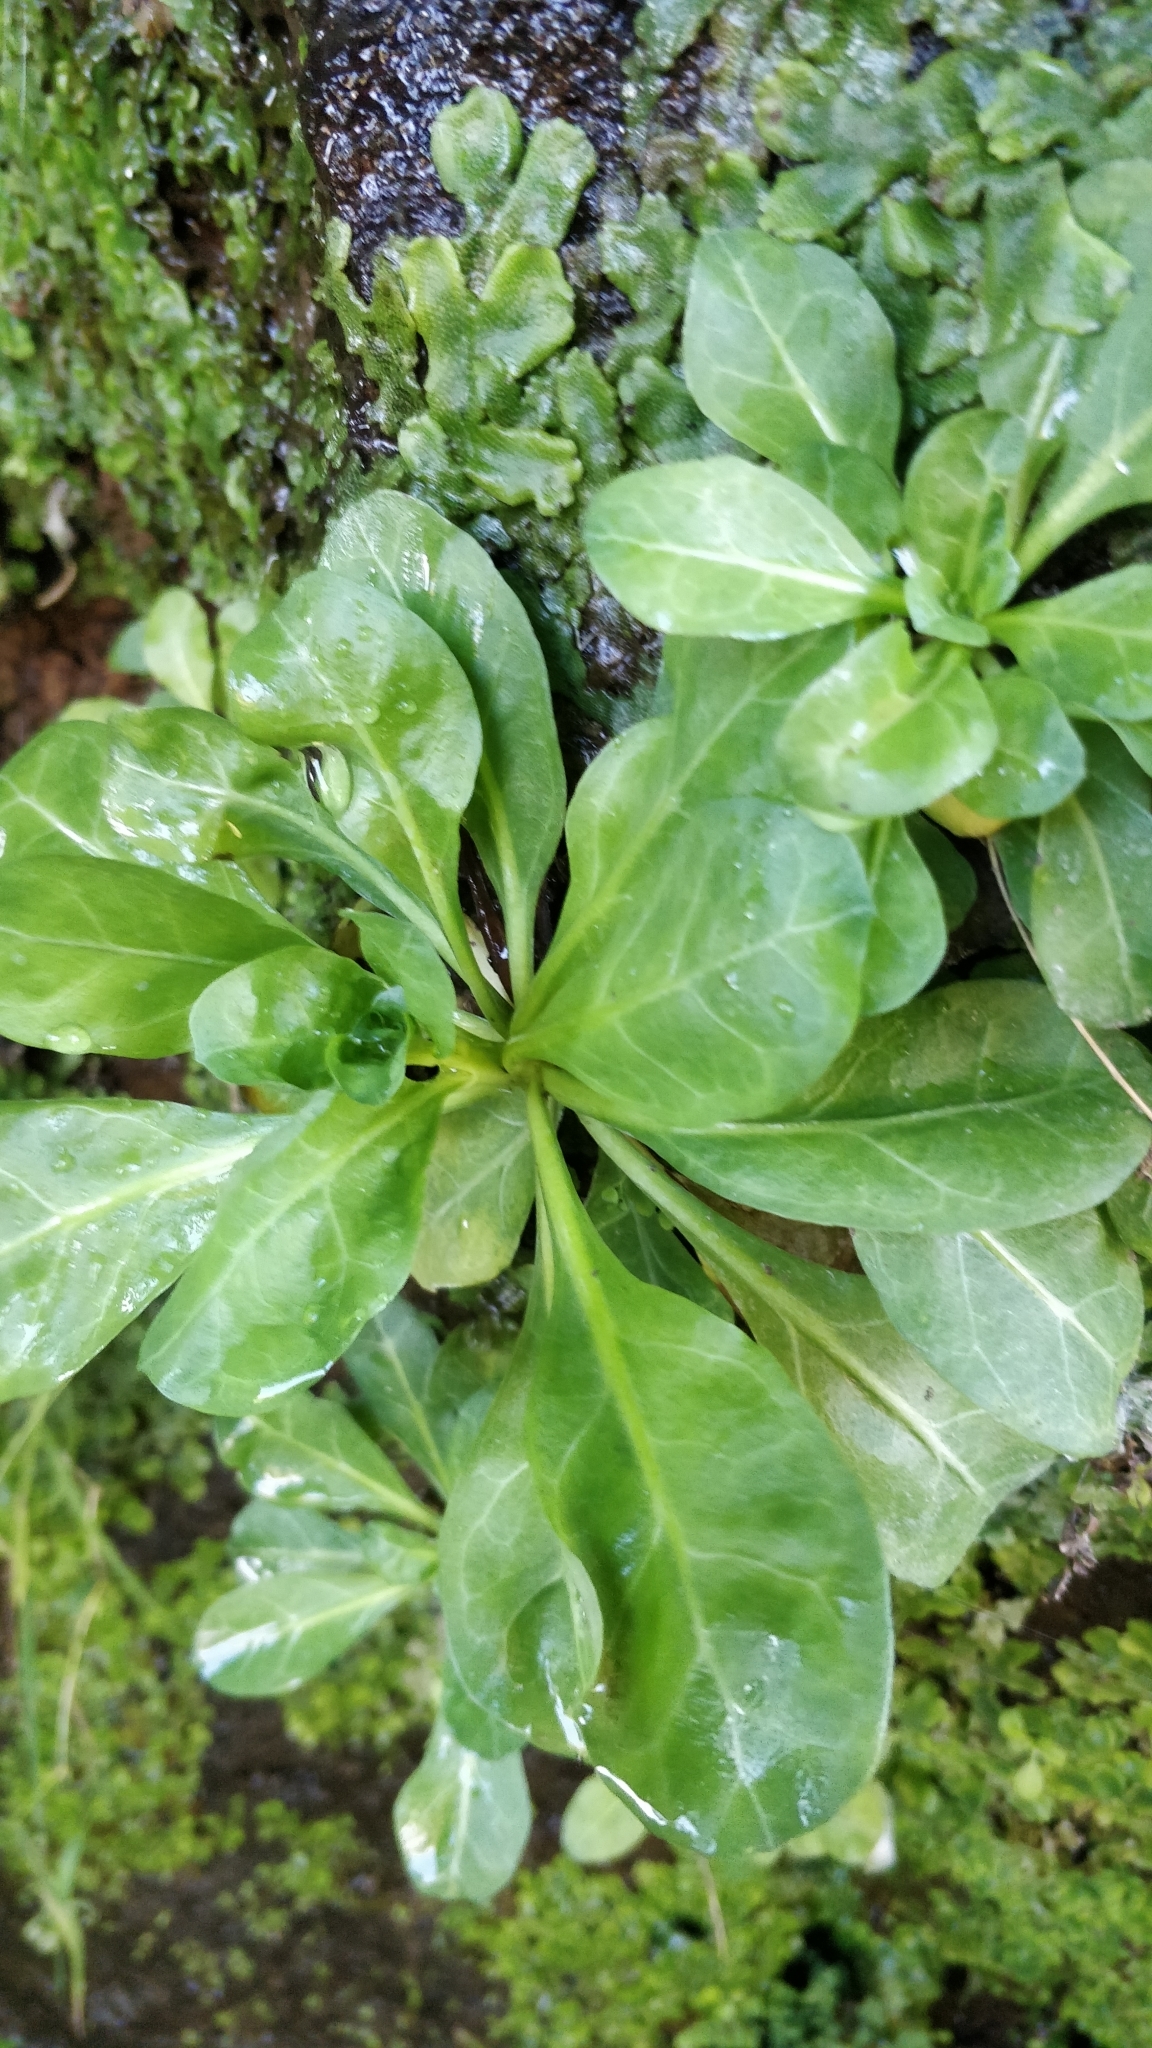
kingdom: Plantae
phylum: Tracheophyta
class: Magnoliopsida
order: Ericales
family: Primulaceae
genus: Samolus
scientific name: Samolus valerandi
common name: Brookweed
